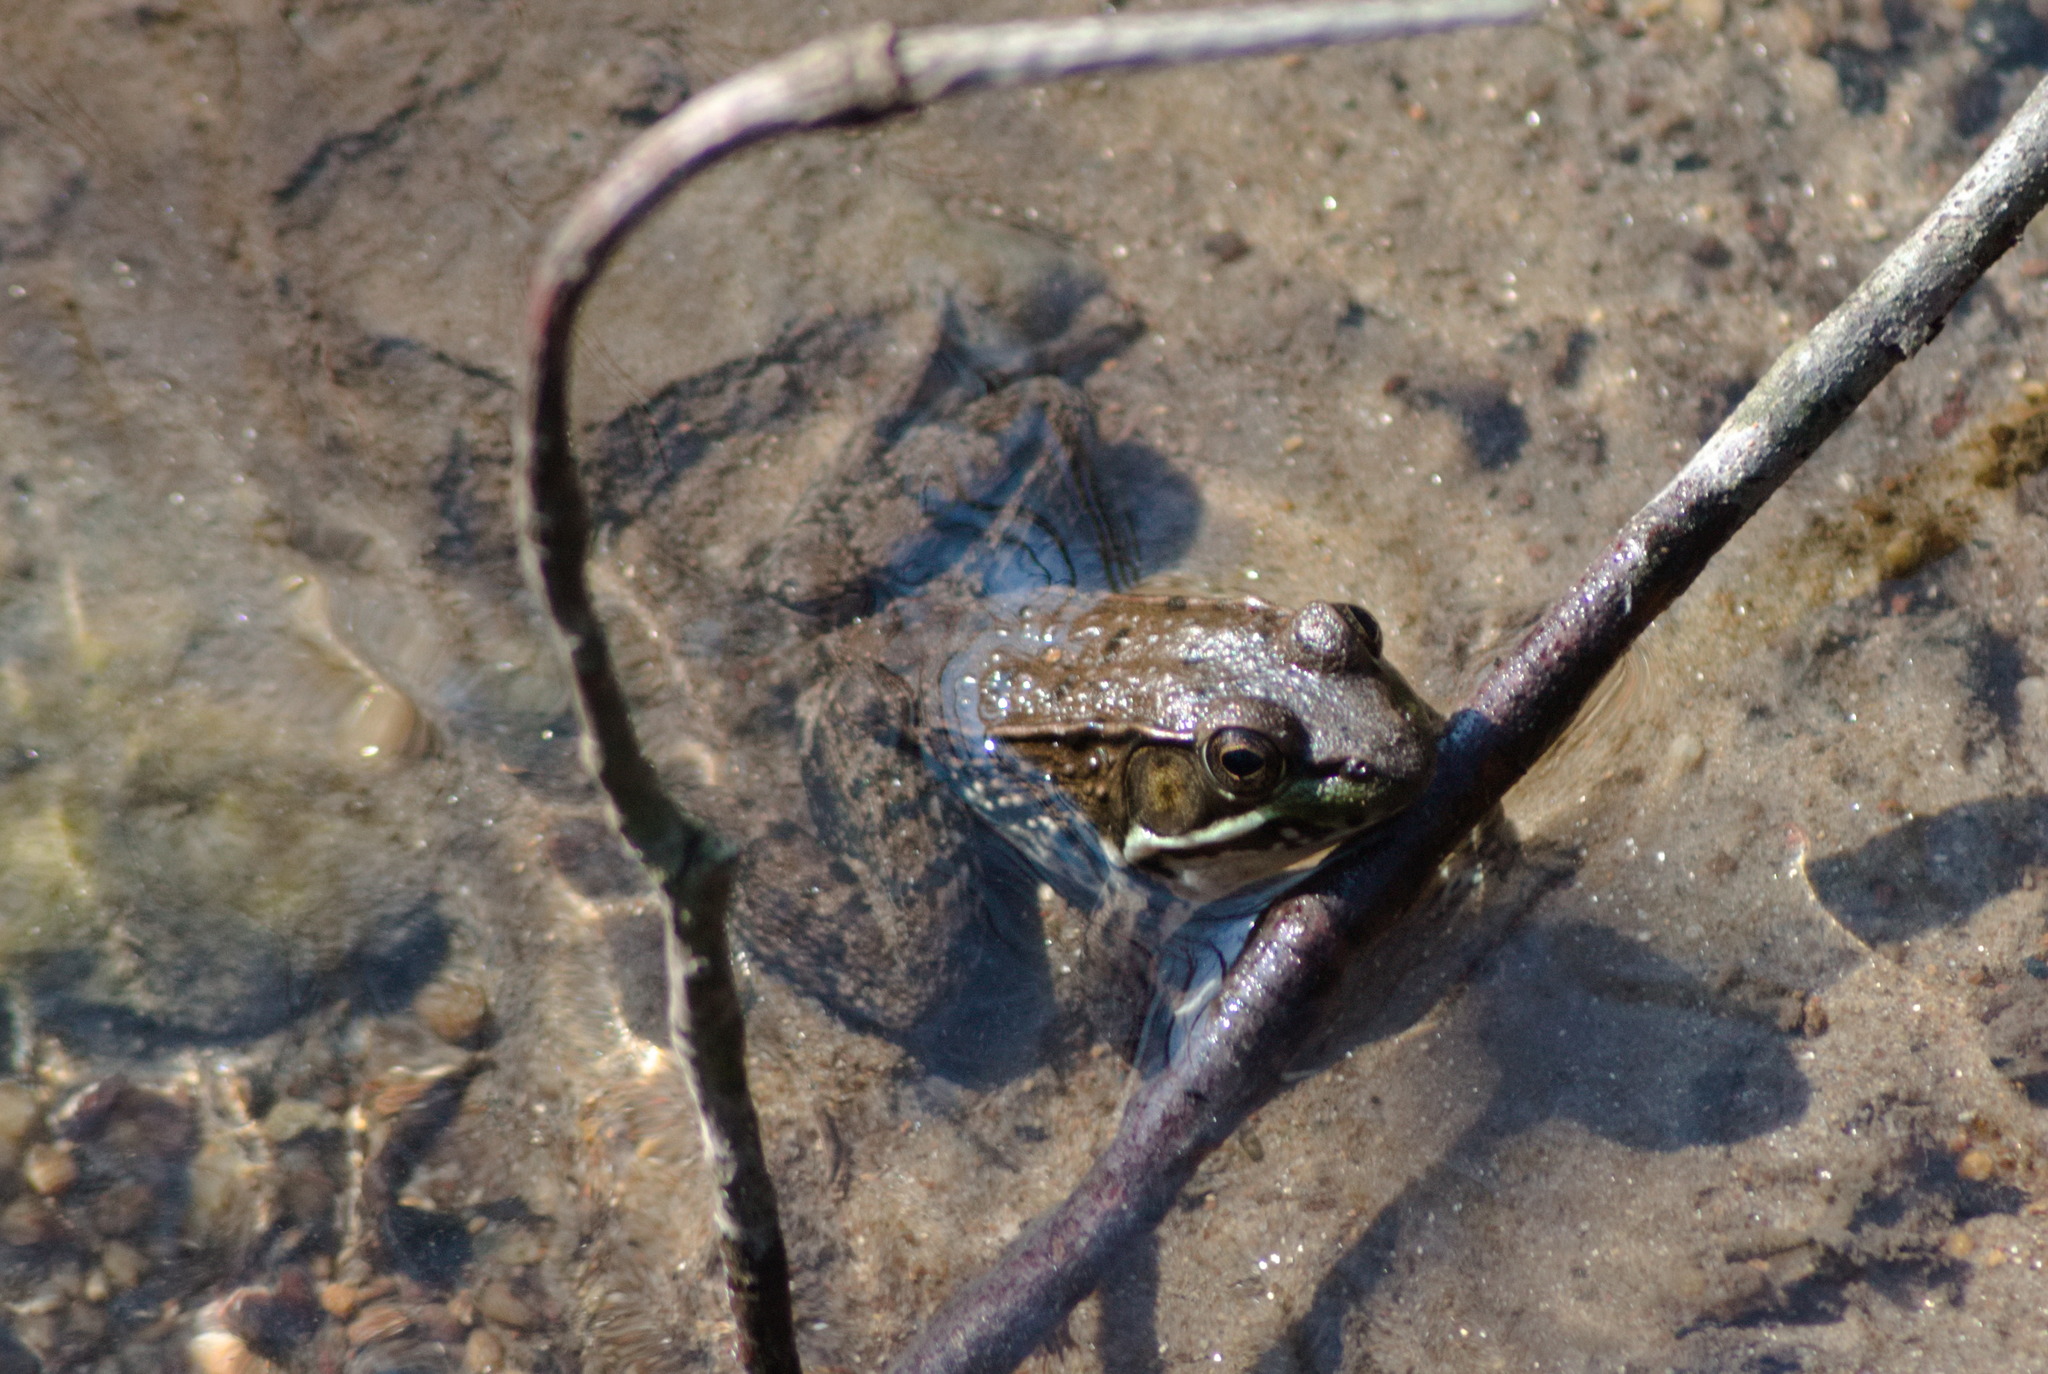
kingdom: Animalia
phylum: Chordata
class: Amphibia
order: Anura
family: Ranidae
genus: Lithobates
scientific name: Lithobates clamitans
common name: Green frog
